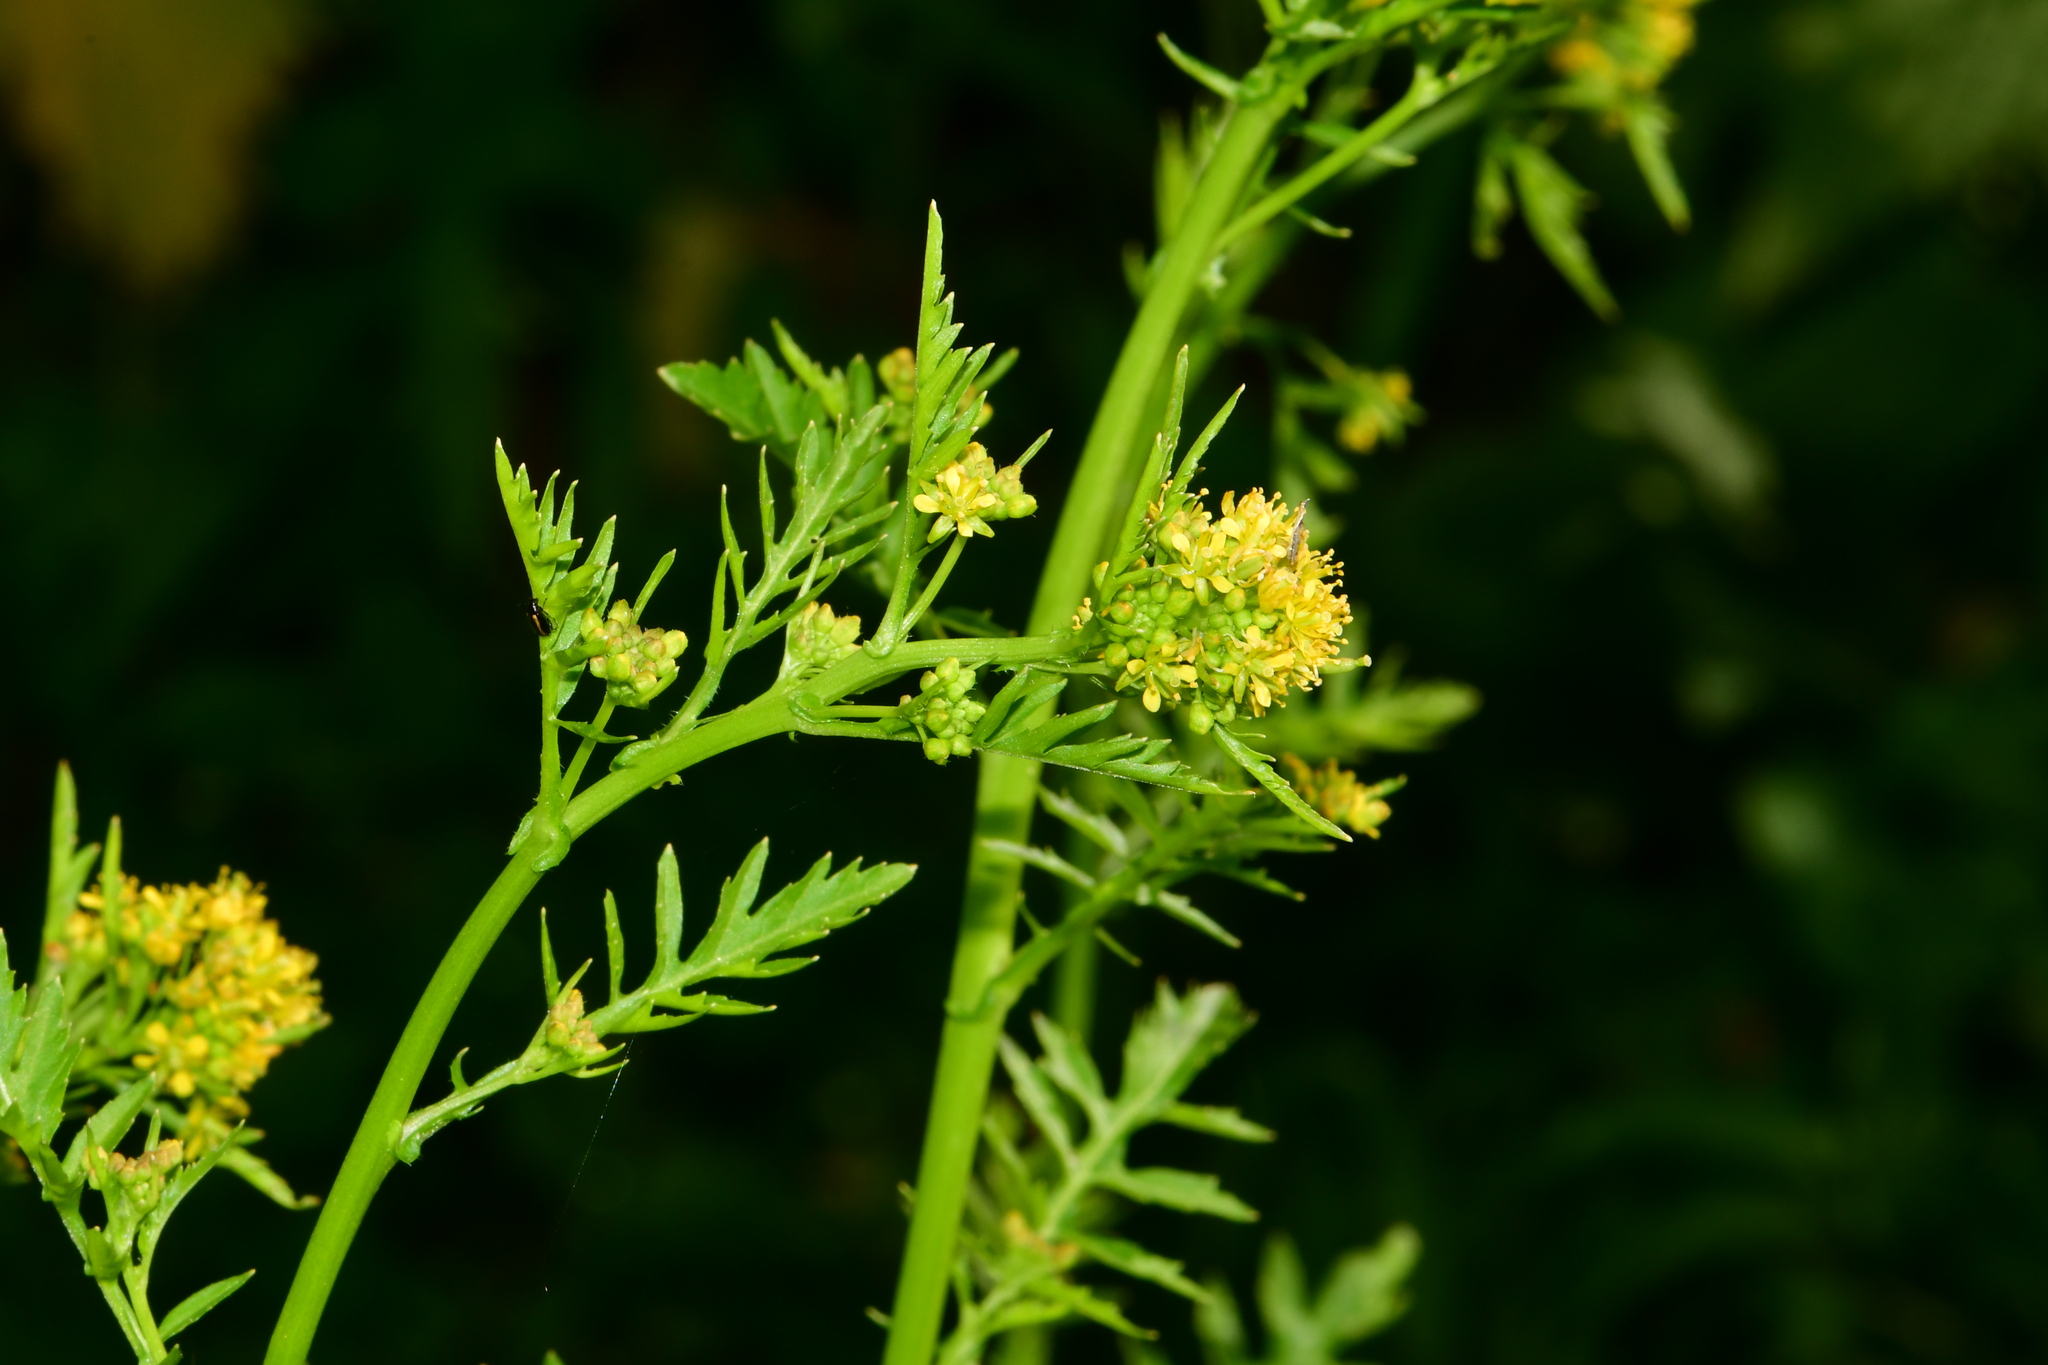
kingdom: Plantae
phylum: Tracheophyta
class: Magnoliopsida
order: Brassicales
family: Brassicaceae
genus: Rorippa
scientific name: Rorippa palustris
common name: Marsh yellow-cress
